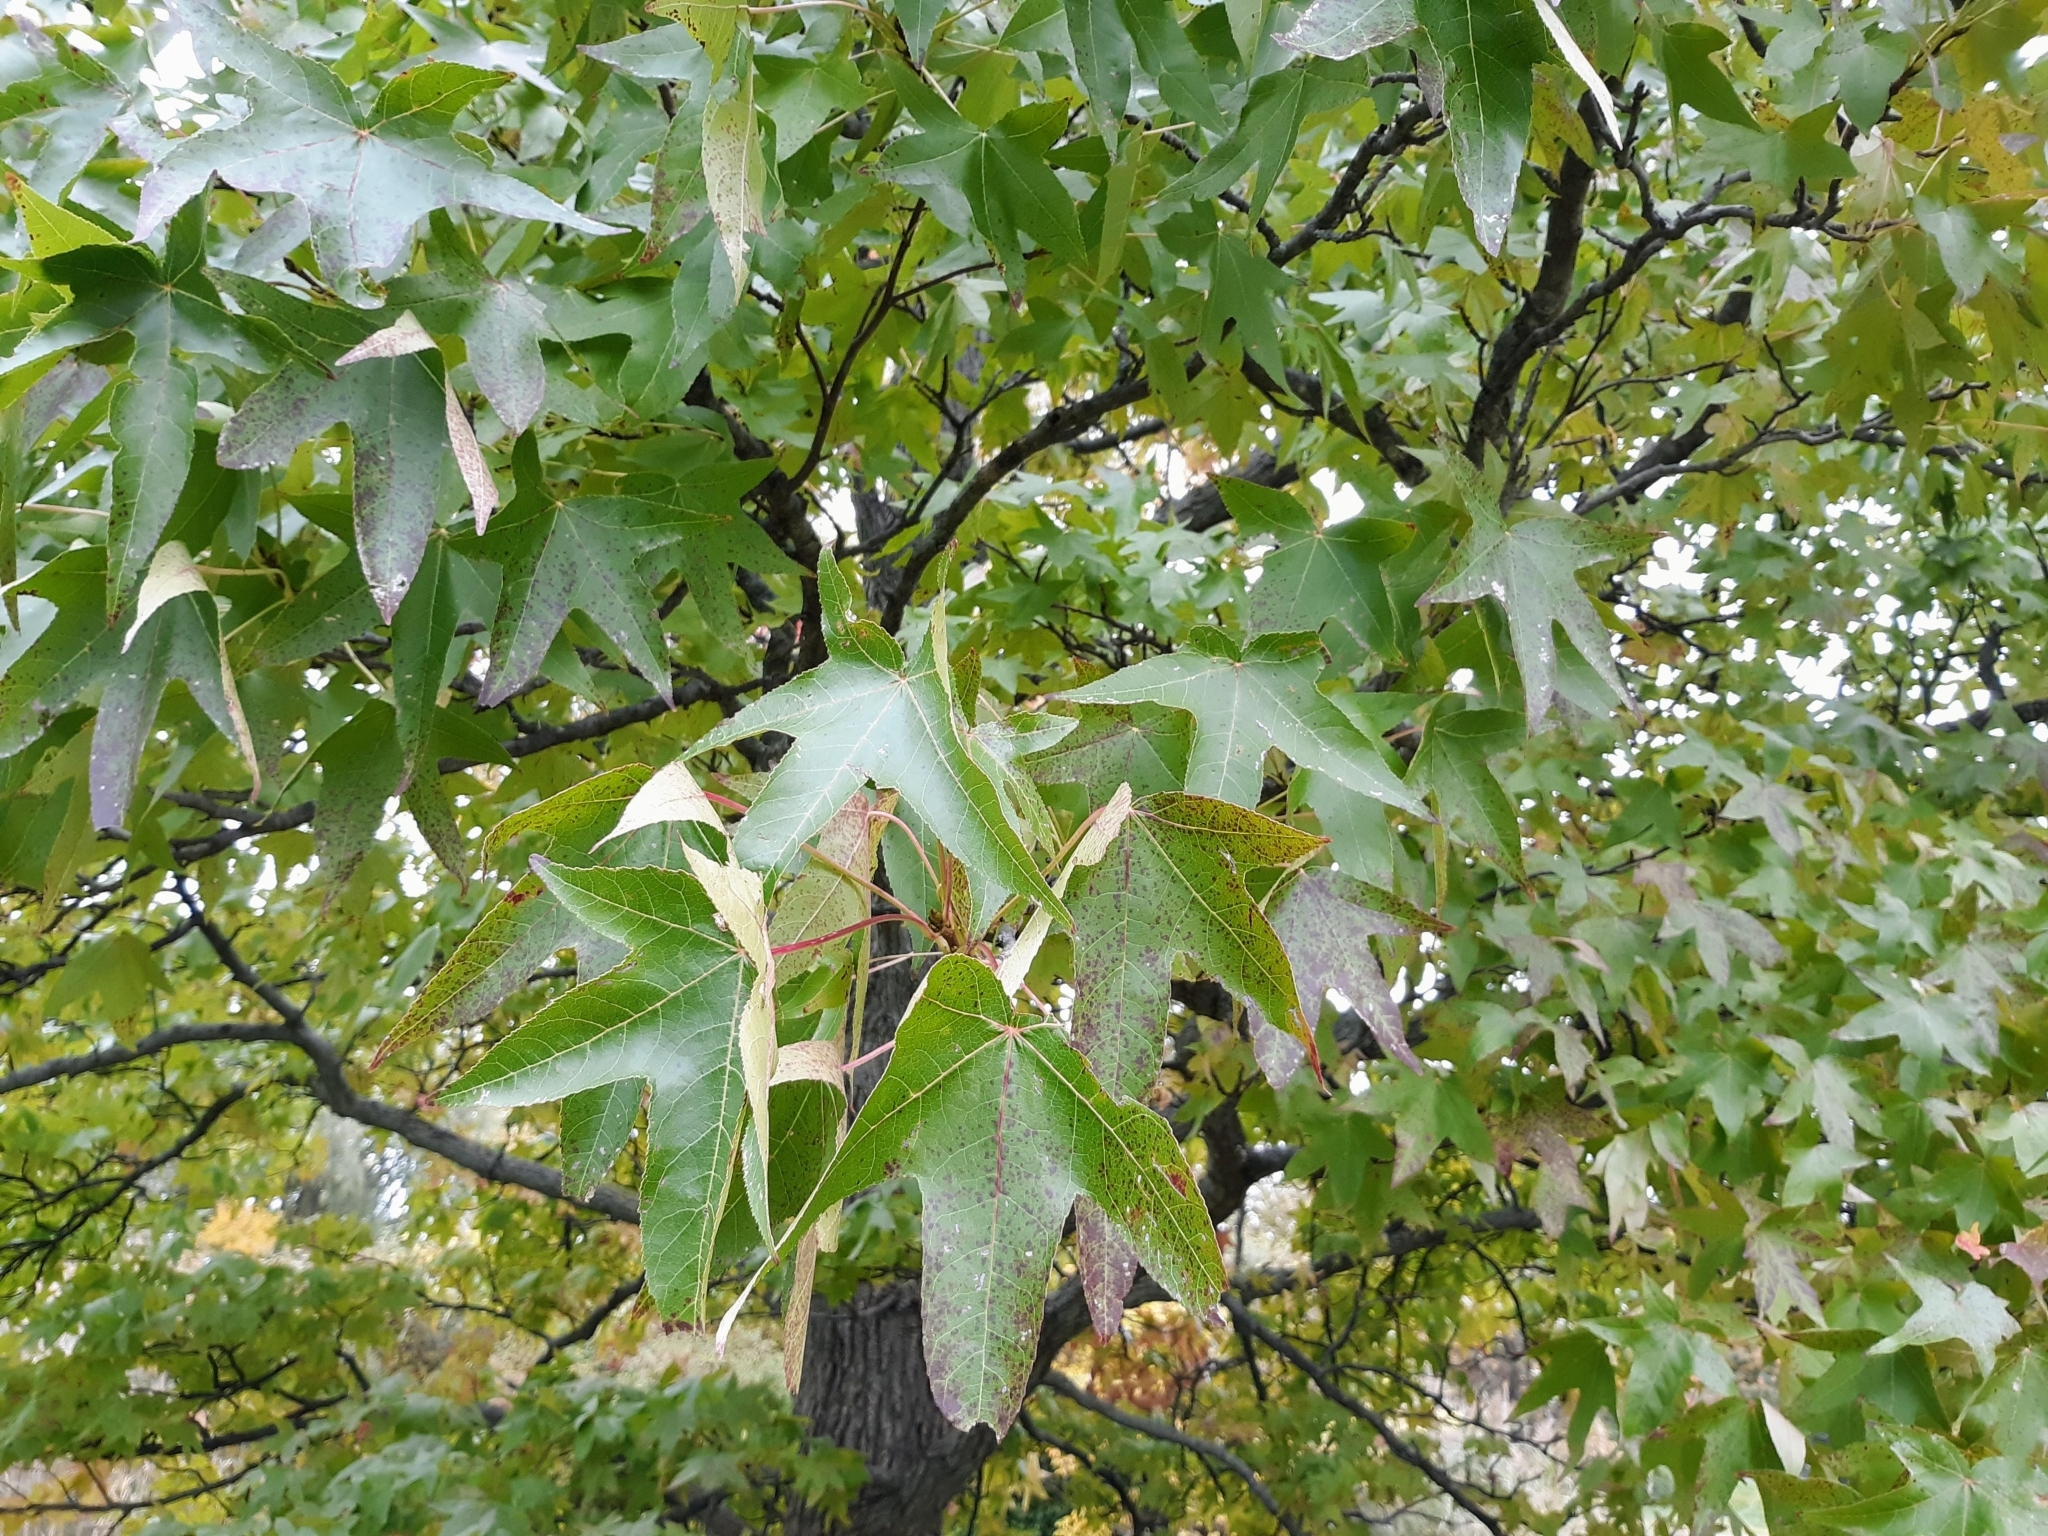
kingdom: Plantae
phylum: Tracheophyta
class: Magnoliopsida
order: Saxifragales
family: Altingiaceae
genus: Liquidambar
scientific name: Liquidambar styraciflua
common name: Sweet gum
